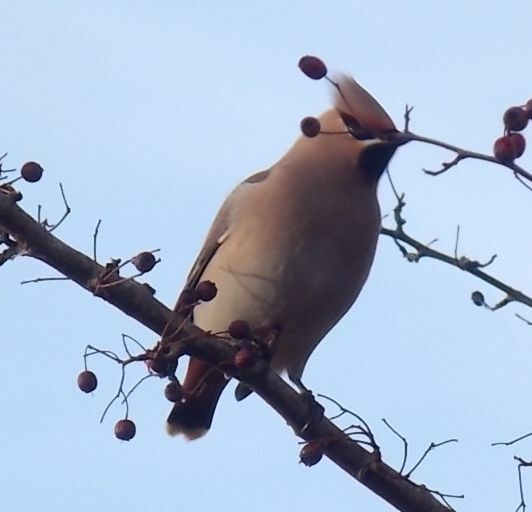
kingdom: Animalia
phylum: Chordata
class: Aves
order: Passeriformes
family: Bombycillidae
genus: Bombycilla
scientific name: Bombycilla garrulus
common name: Bohemian waxwing
